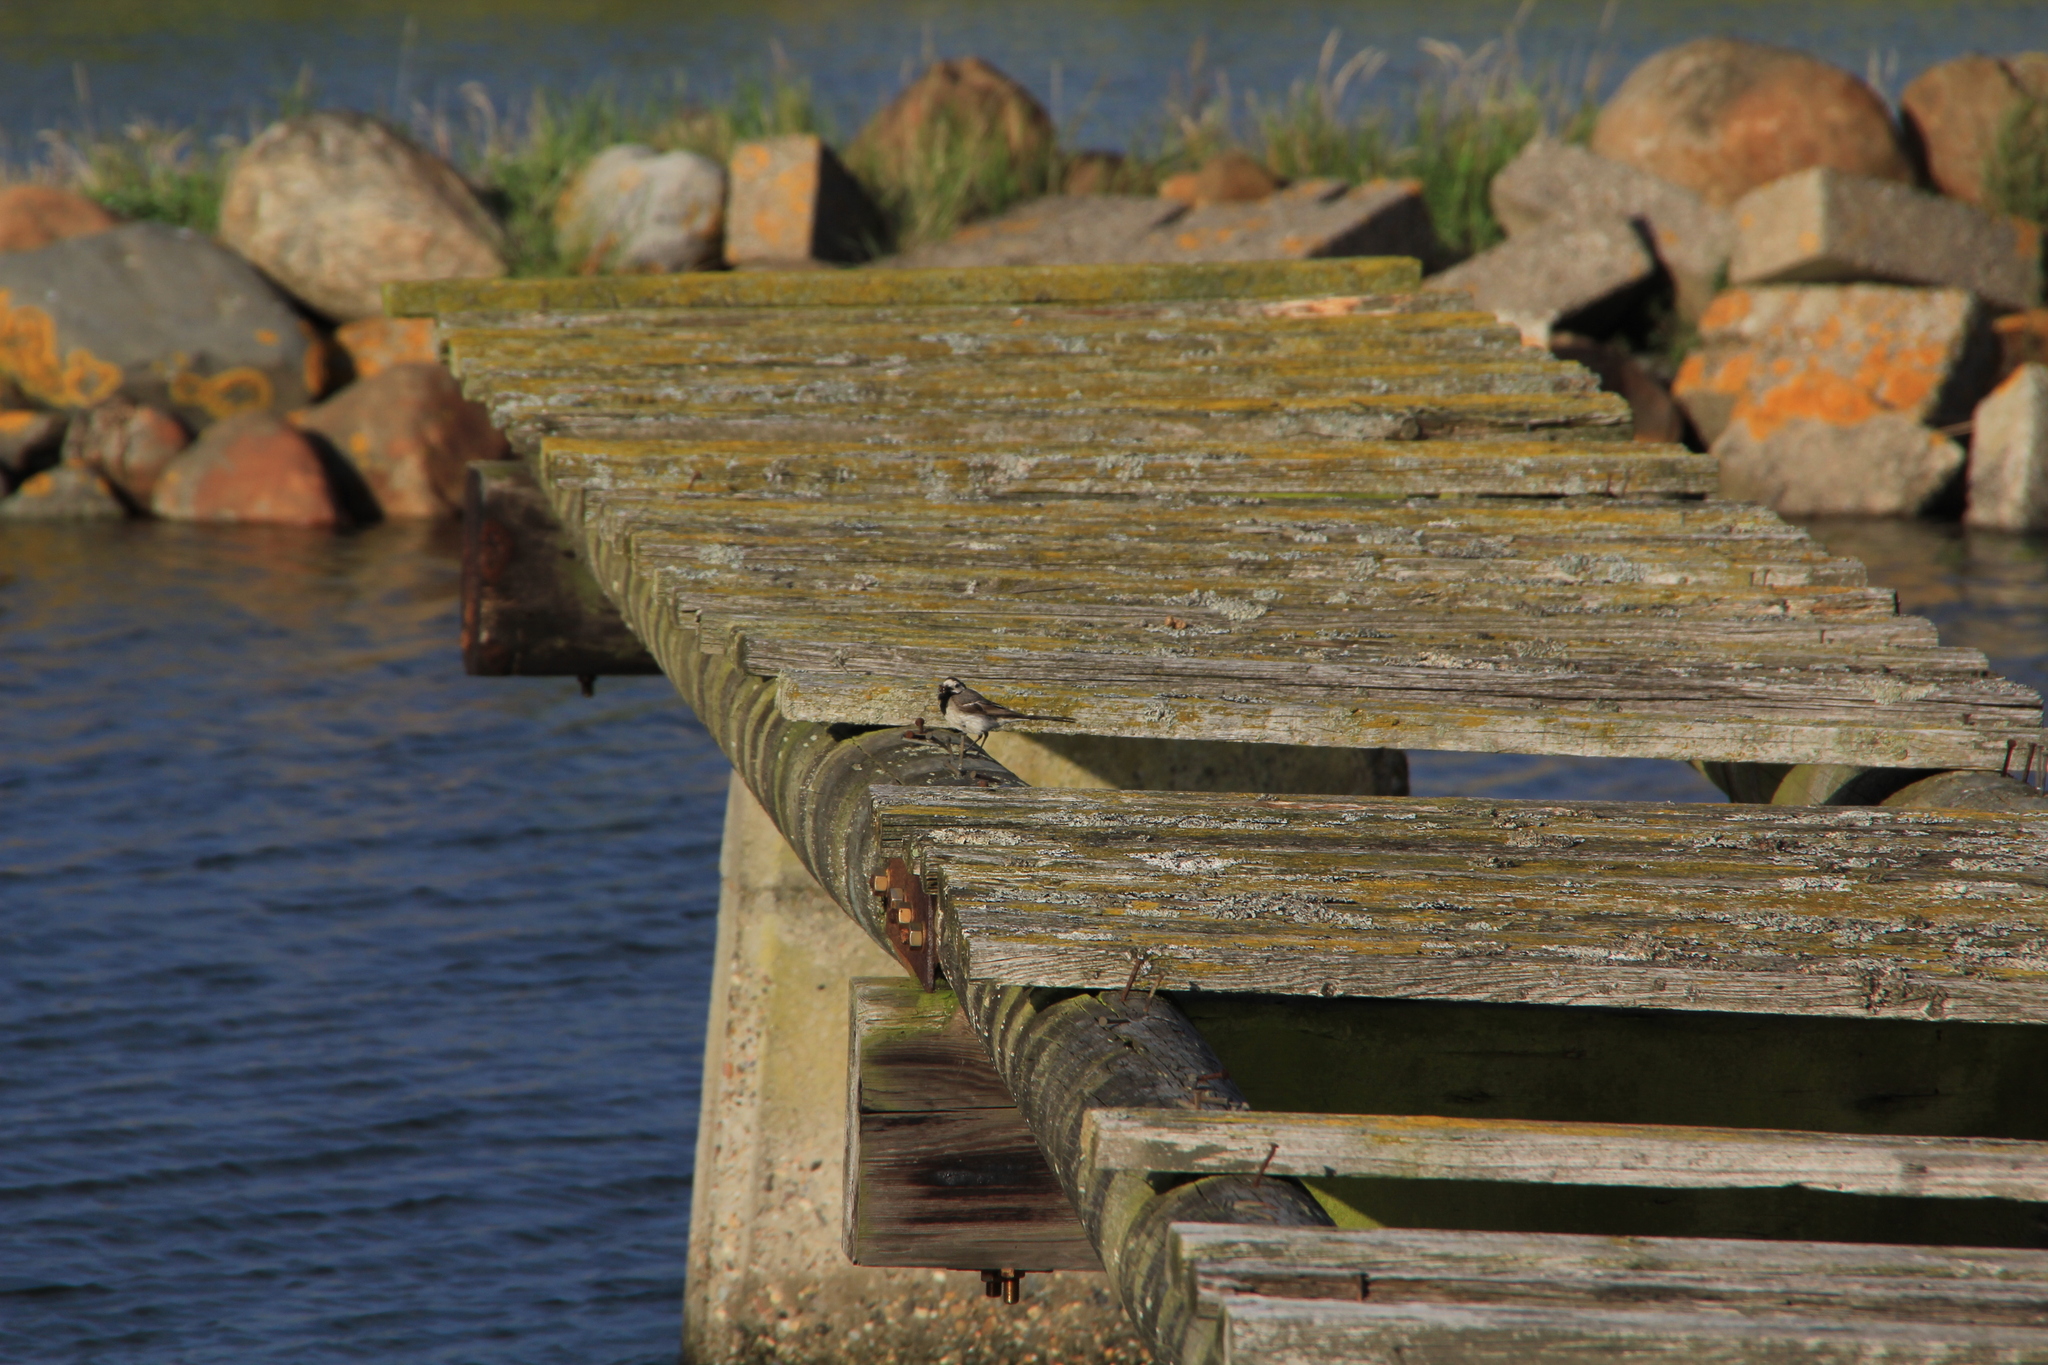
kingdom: Animalia
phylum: Chordata
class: Aves
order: Passeriformes
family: Motacillidae
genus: Motacilla
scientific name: Motacilla alba
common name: White wagtail
